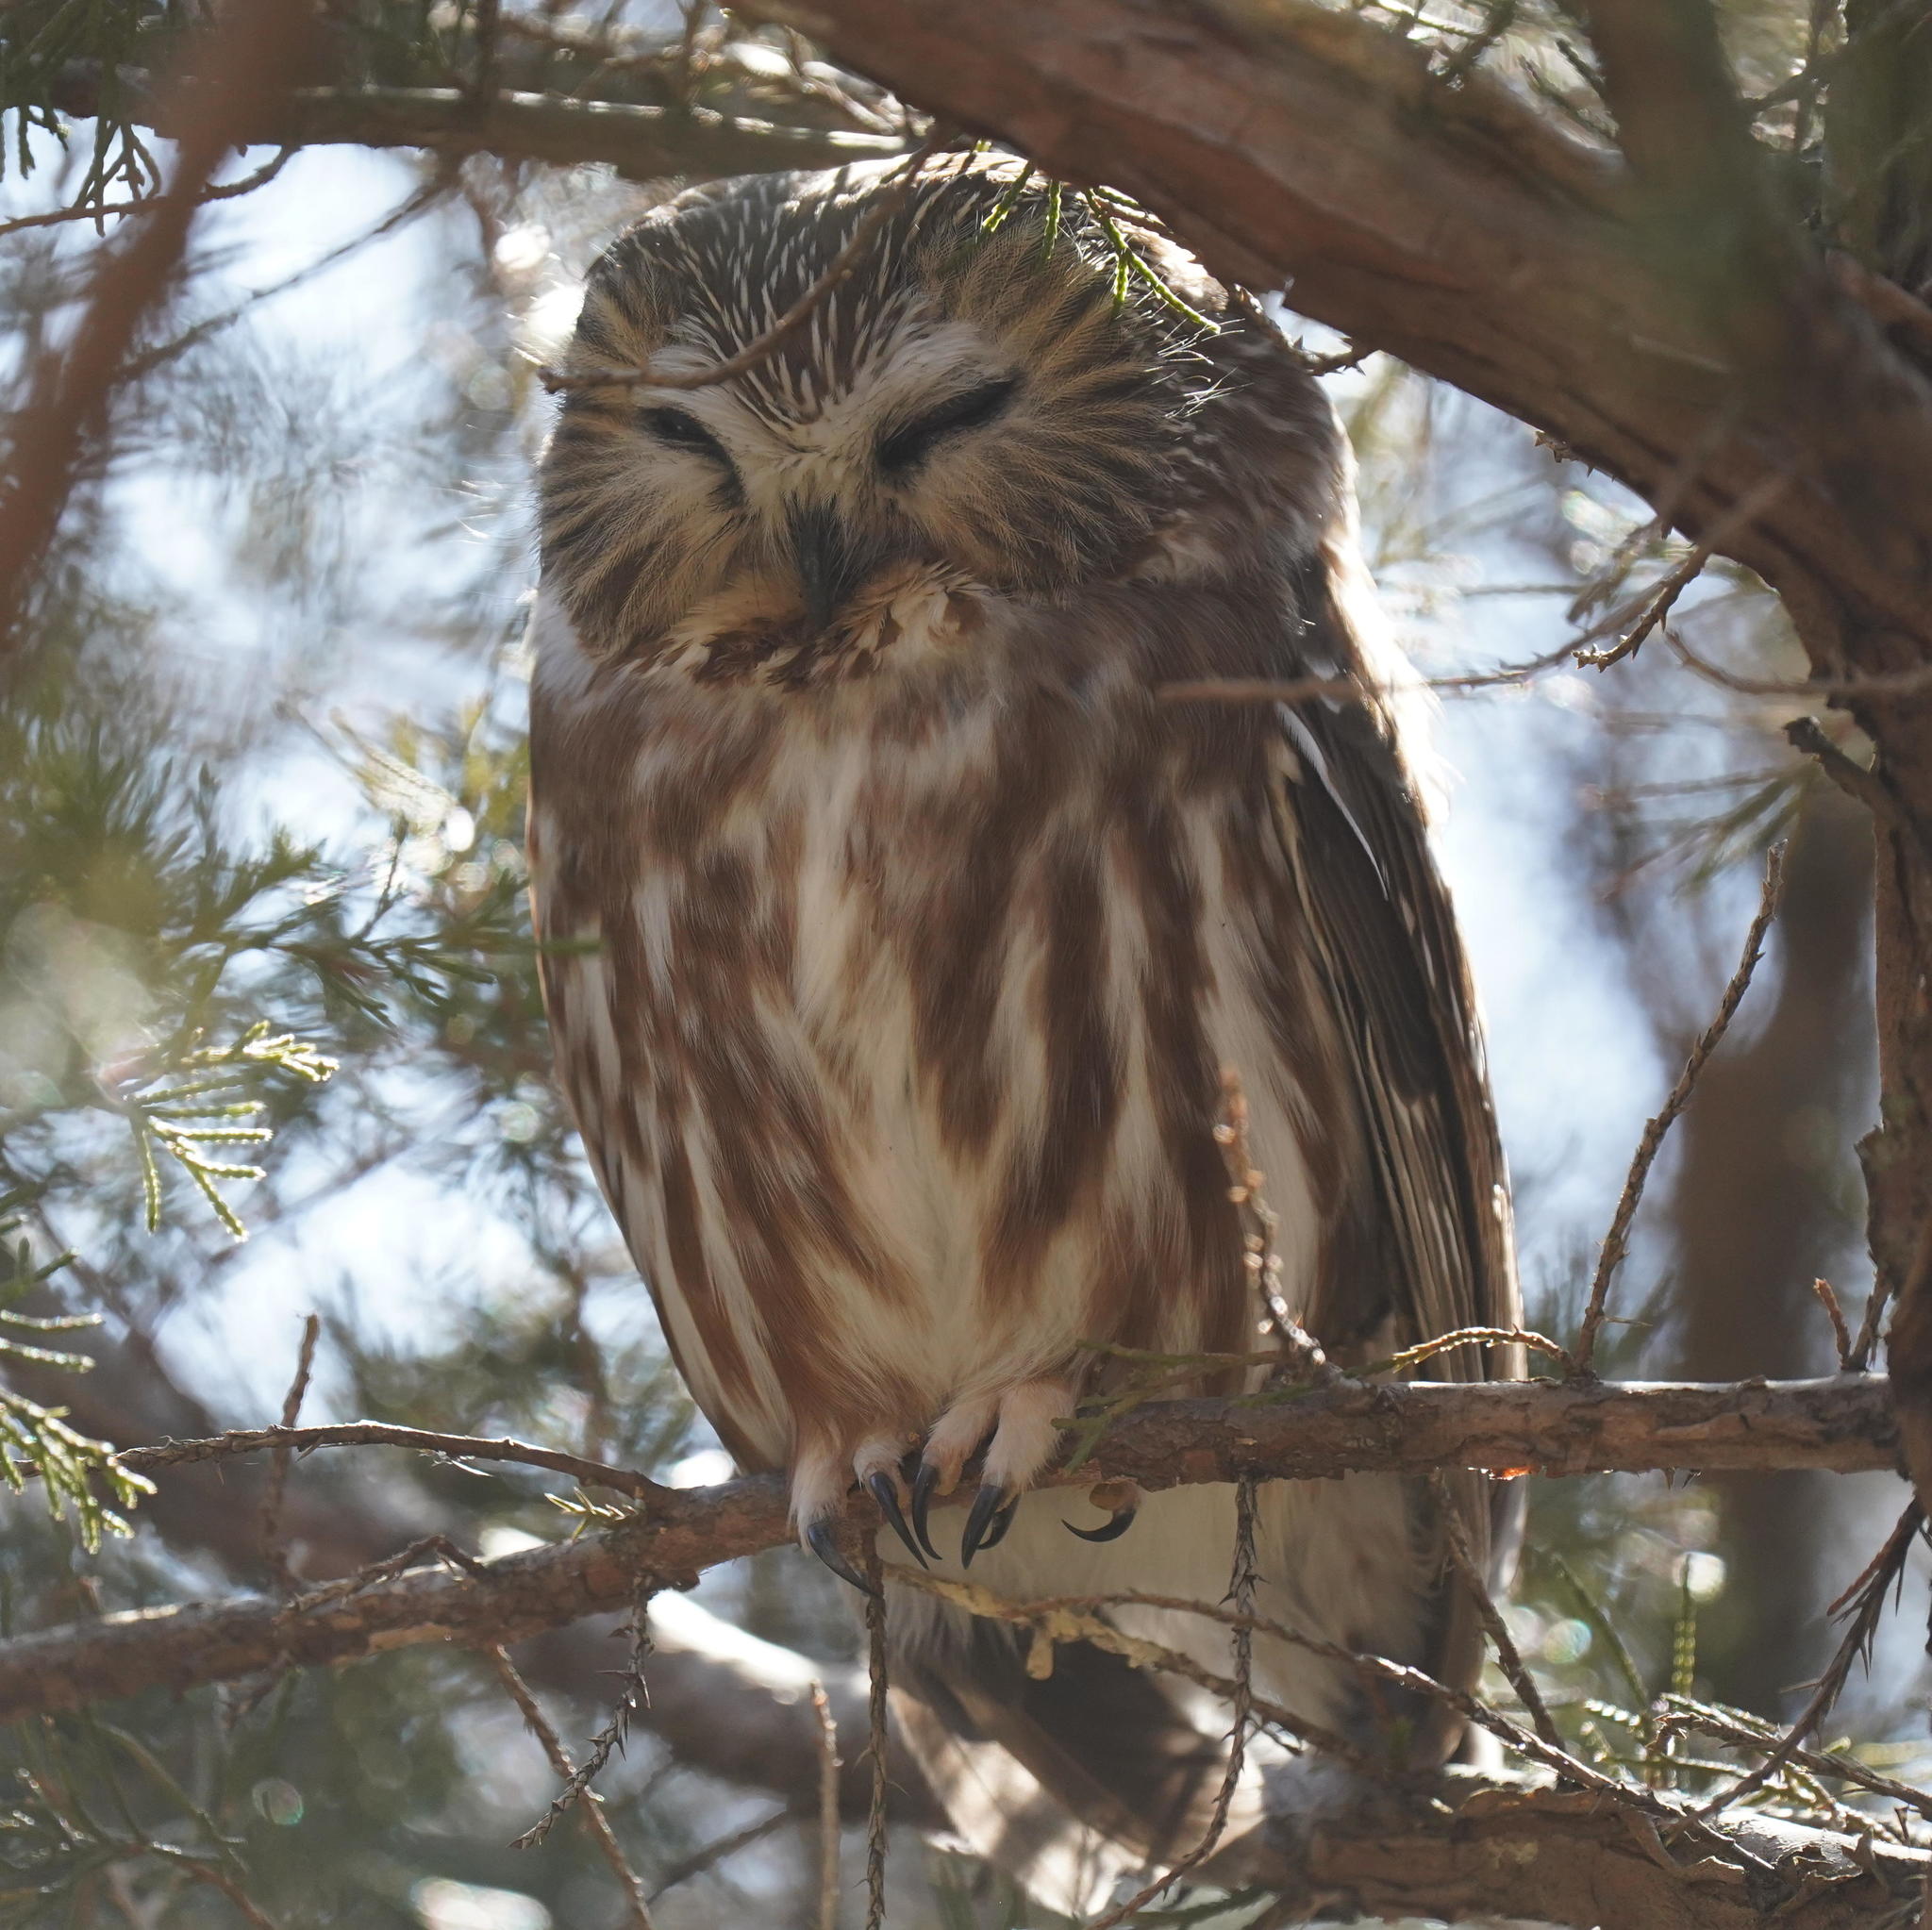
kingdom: Animalia
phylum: Chordata
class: Aves
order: Strigiformes
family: Strigidae
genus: Aegolius
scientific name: Aegolius acadicus
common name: Northern saw-whet owl
